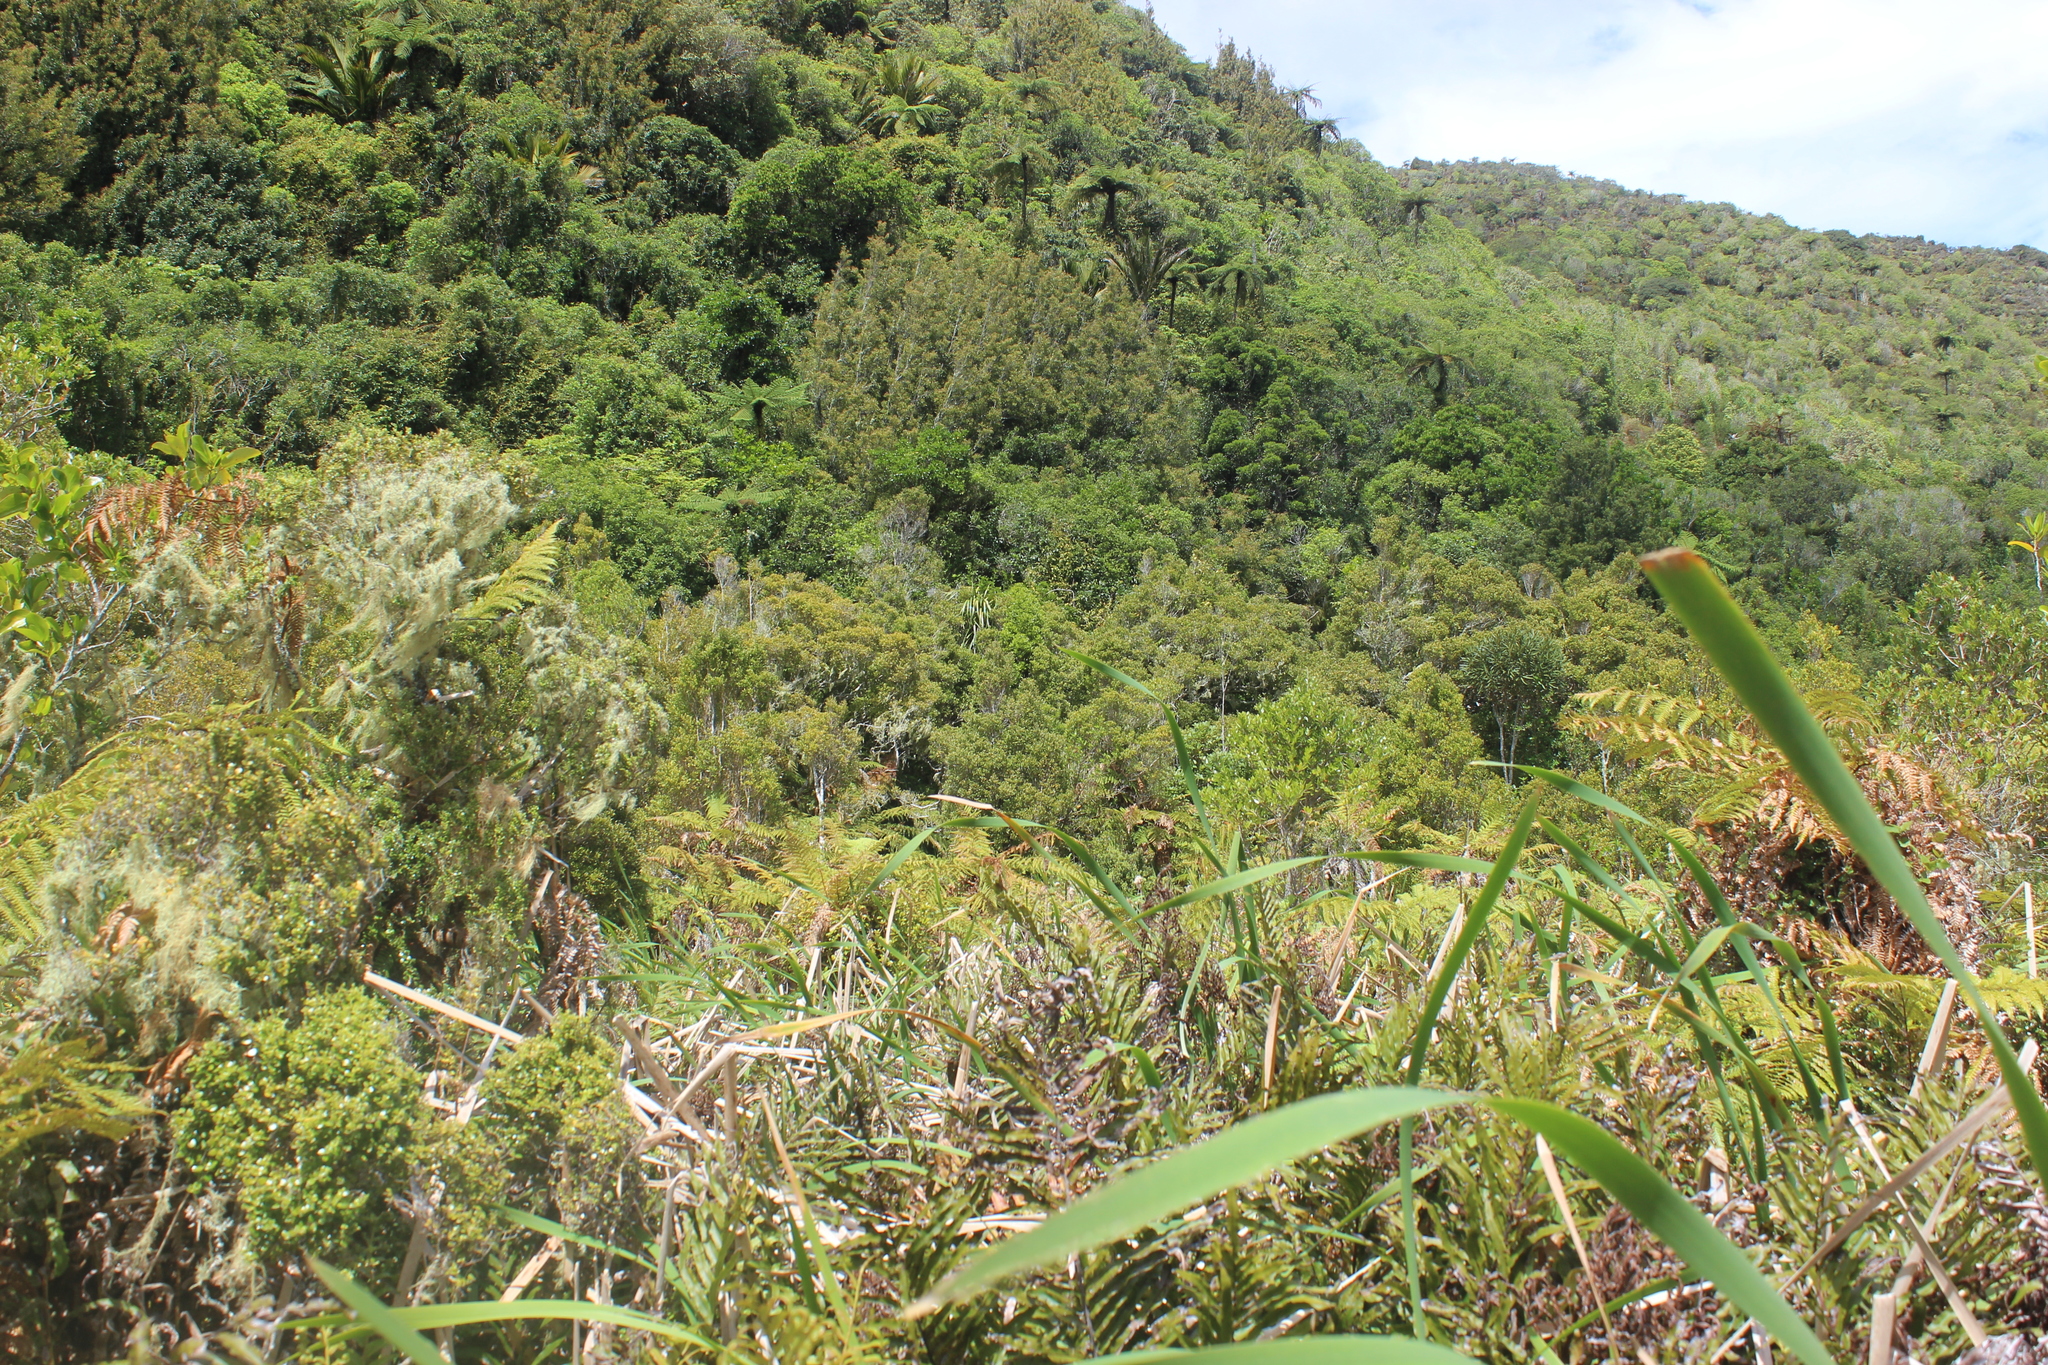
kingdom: Plantae
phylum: Tracheophyta
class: Magnoliopsida
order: Myrtales
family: Myrtaceae
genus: Syzygium
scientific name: Syzygium maire
